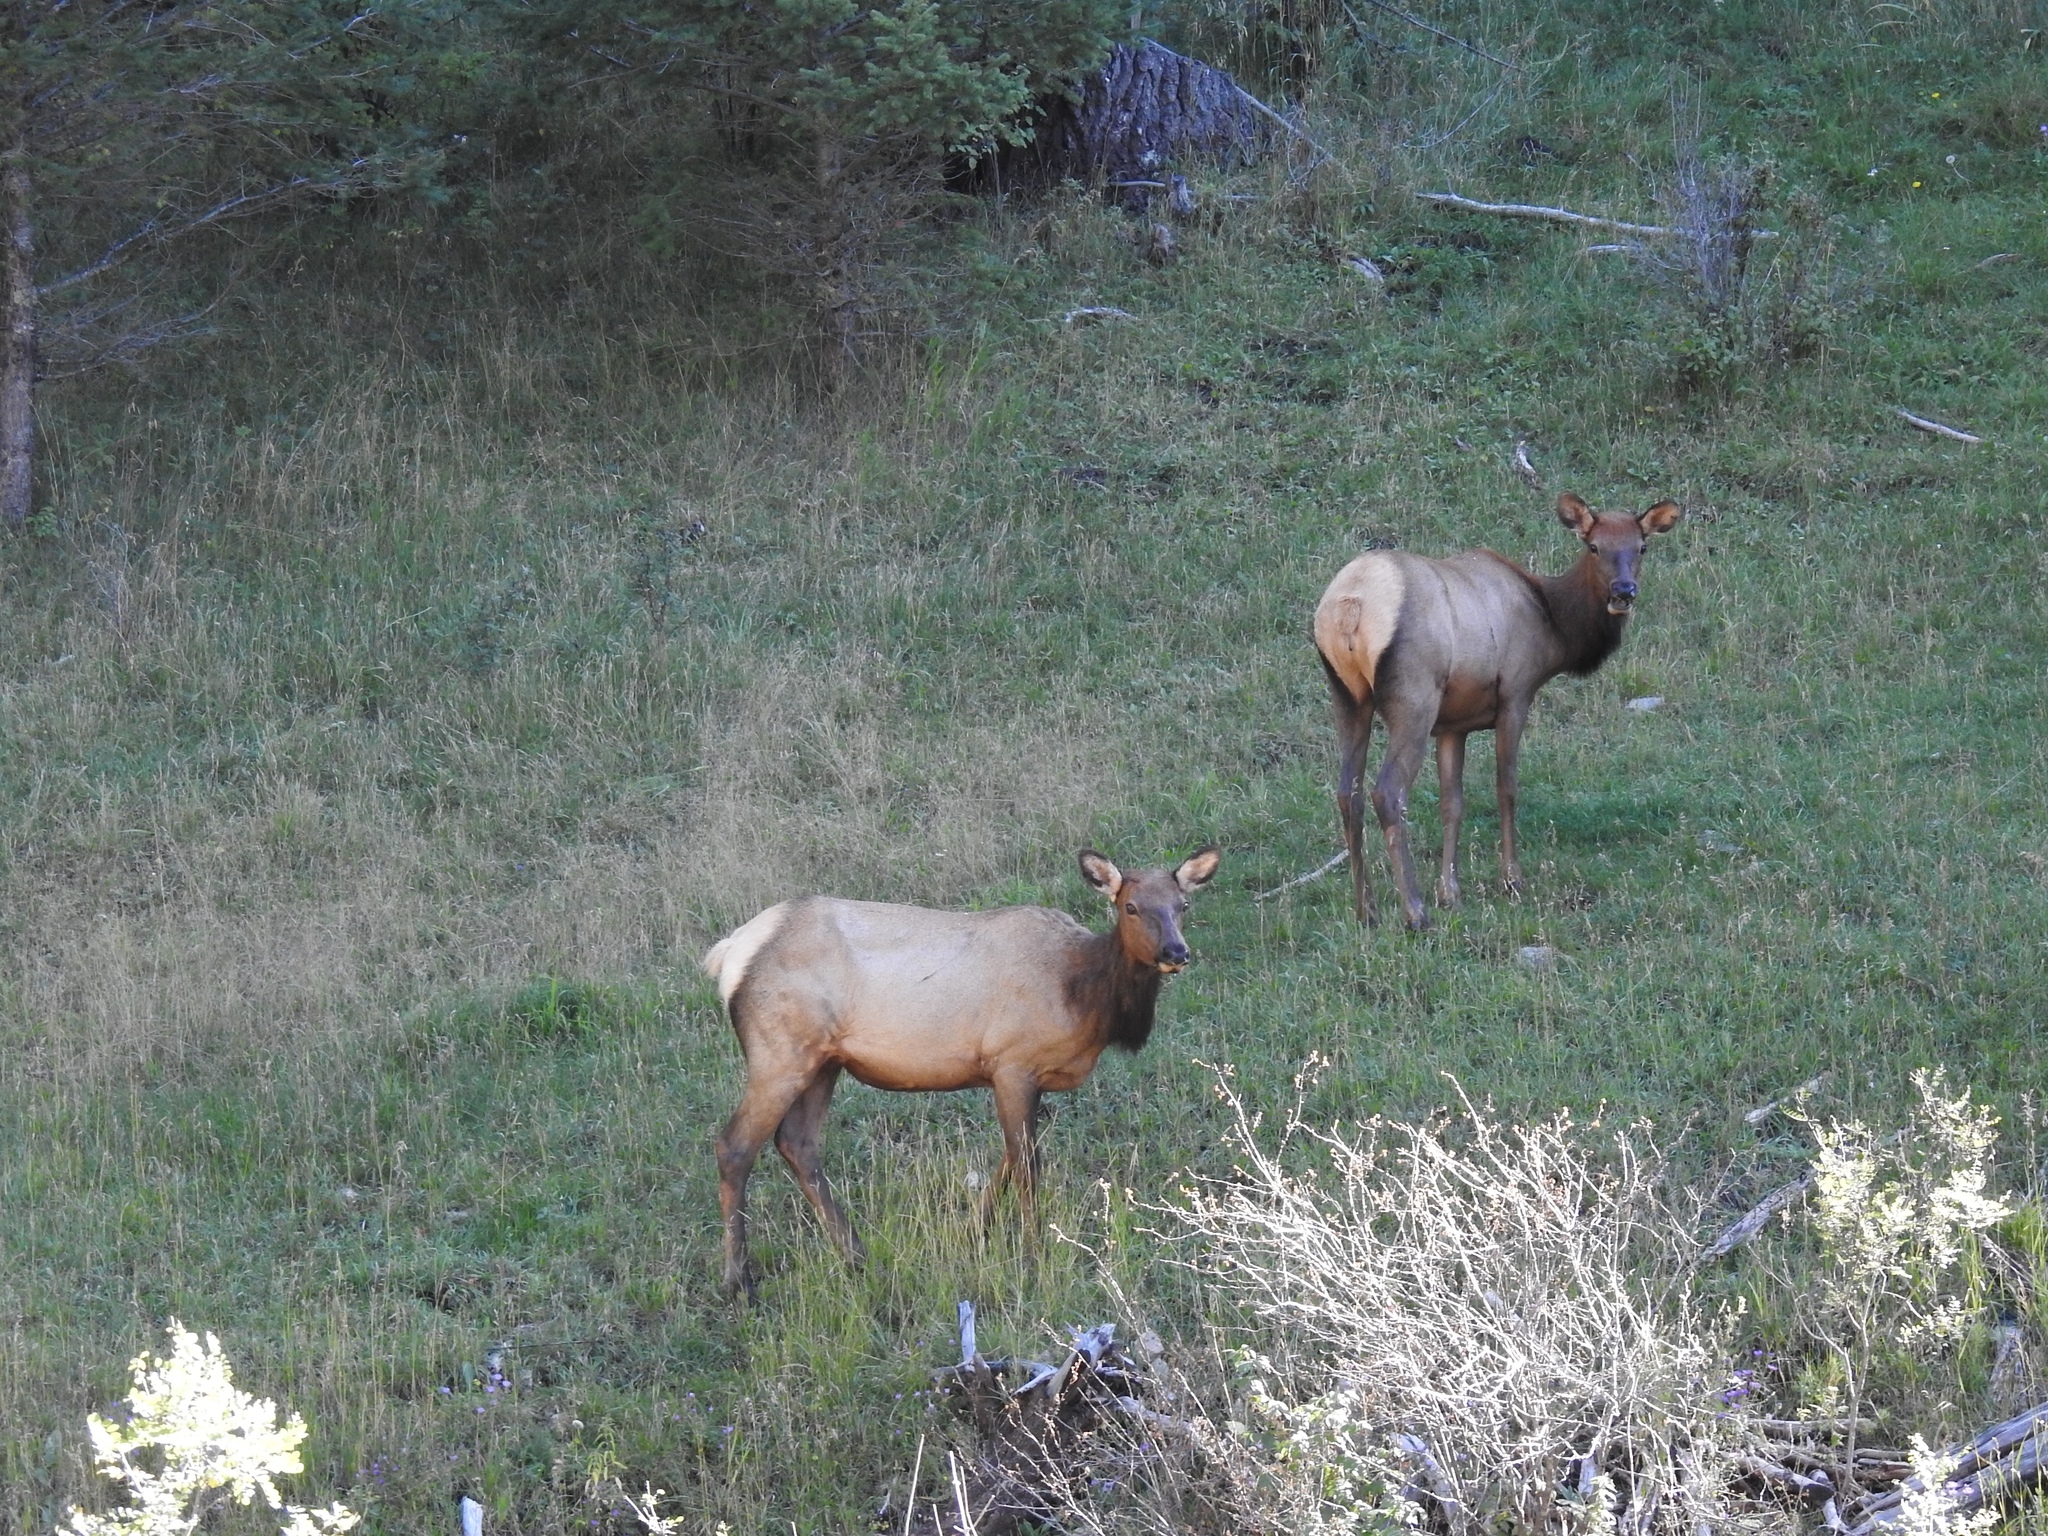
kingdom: Animalia
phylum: Chordata
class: Mammalia
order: Artiodactyla
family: Cervidae
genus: Cervus
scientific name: Cervus elaphus
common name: Red deer
